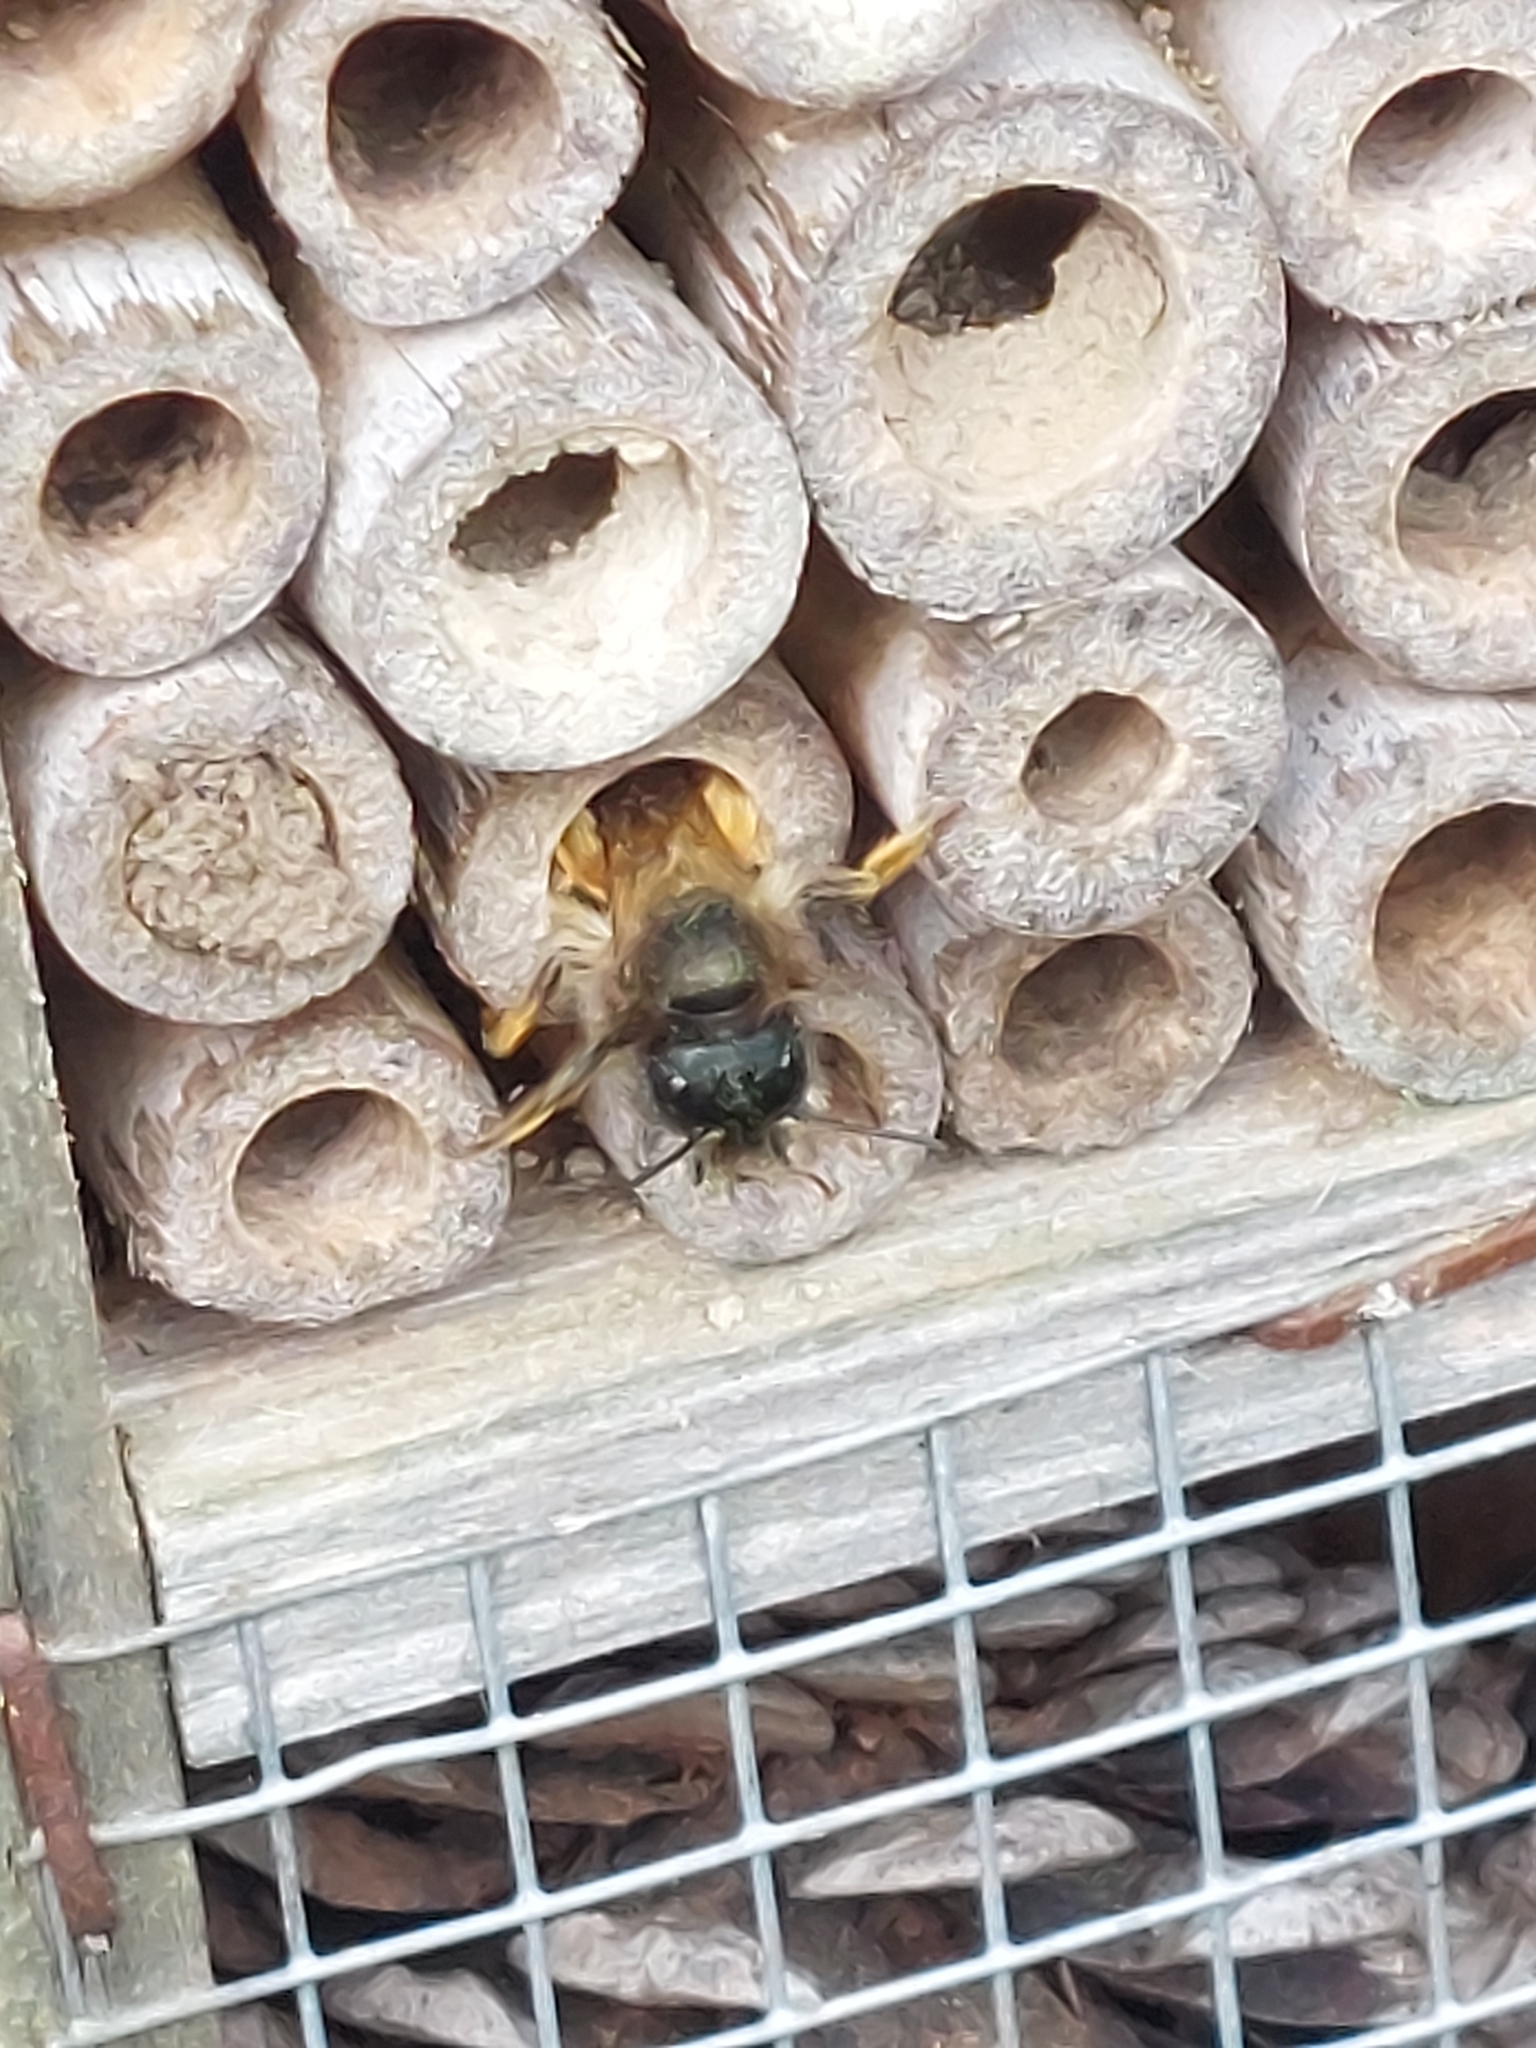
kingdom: Animalia
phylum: Arthropoda
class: Insecta
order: Hymenoptera
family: Megachilidae
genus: Osmia
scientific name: Osmia bicornis
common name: Red mason bee
